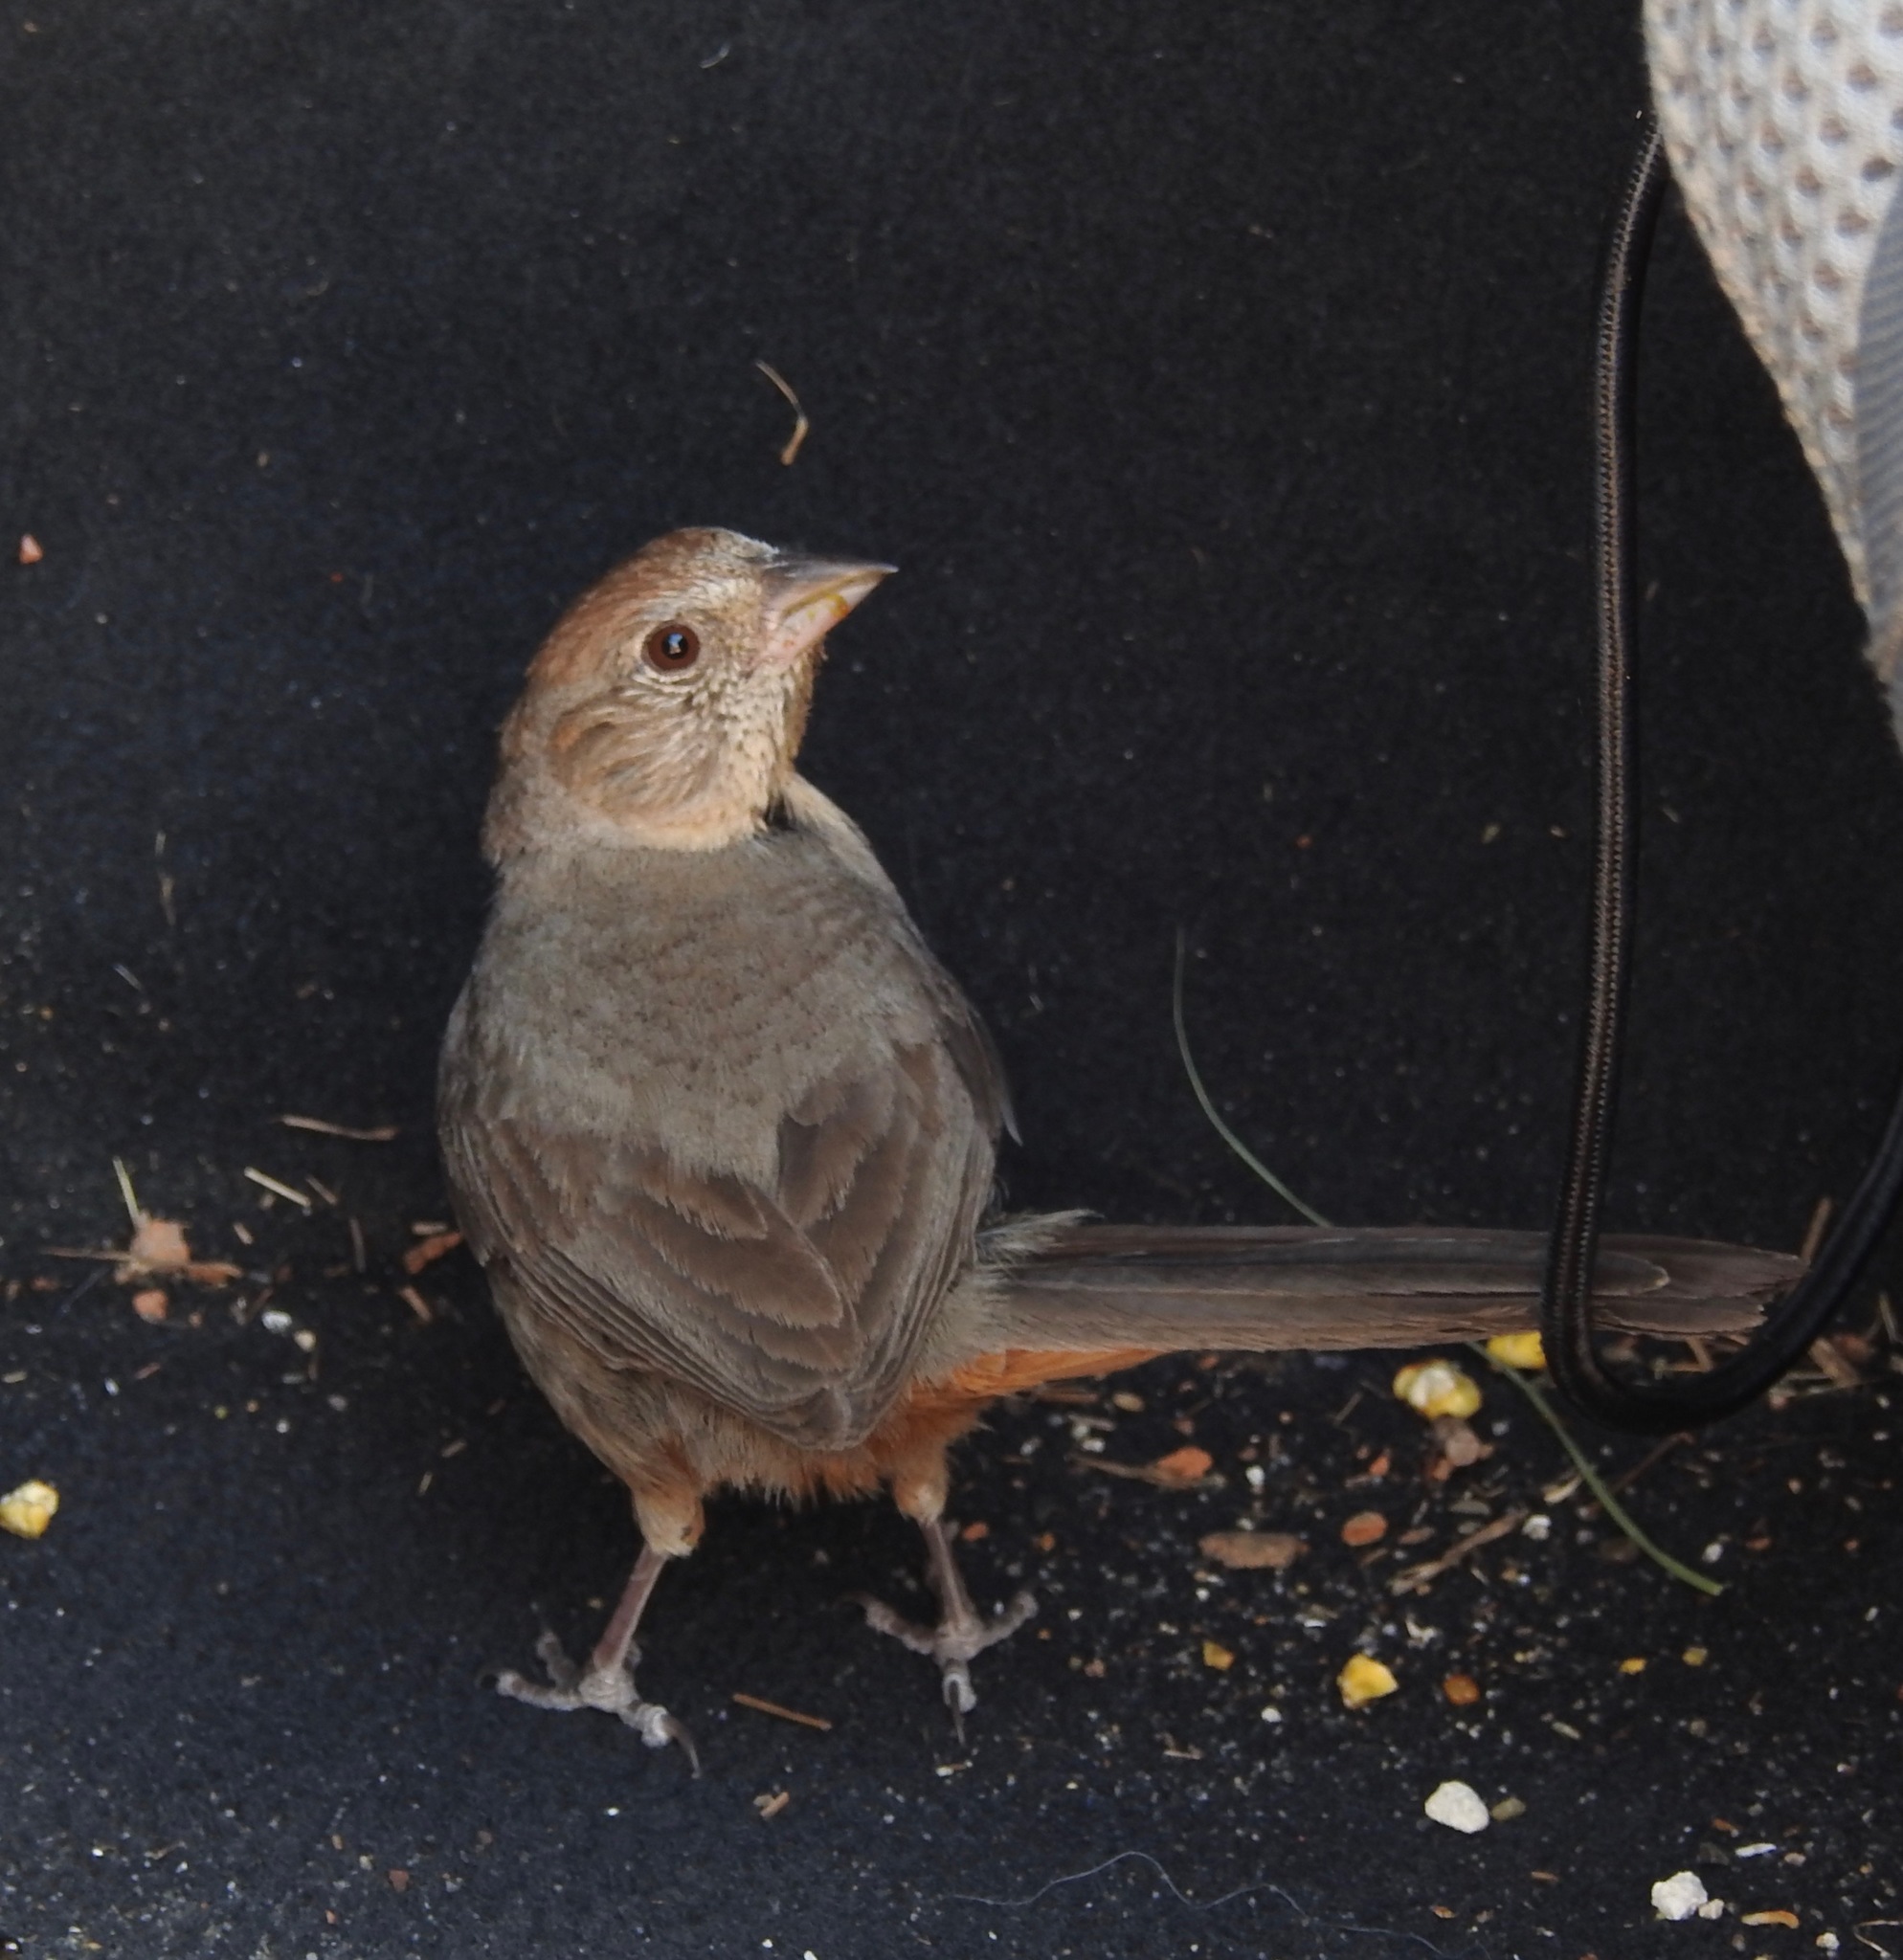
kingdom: Animalia
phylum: Chordata
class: Aves
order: Passeriformes
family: Passerellidae
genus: Melozone
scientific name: Melozone fusca
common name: Canyon towhee
